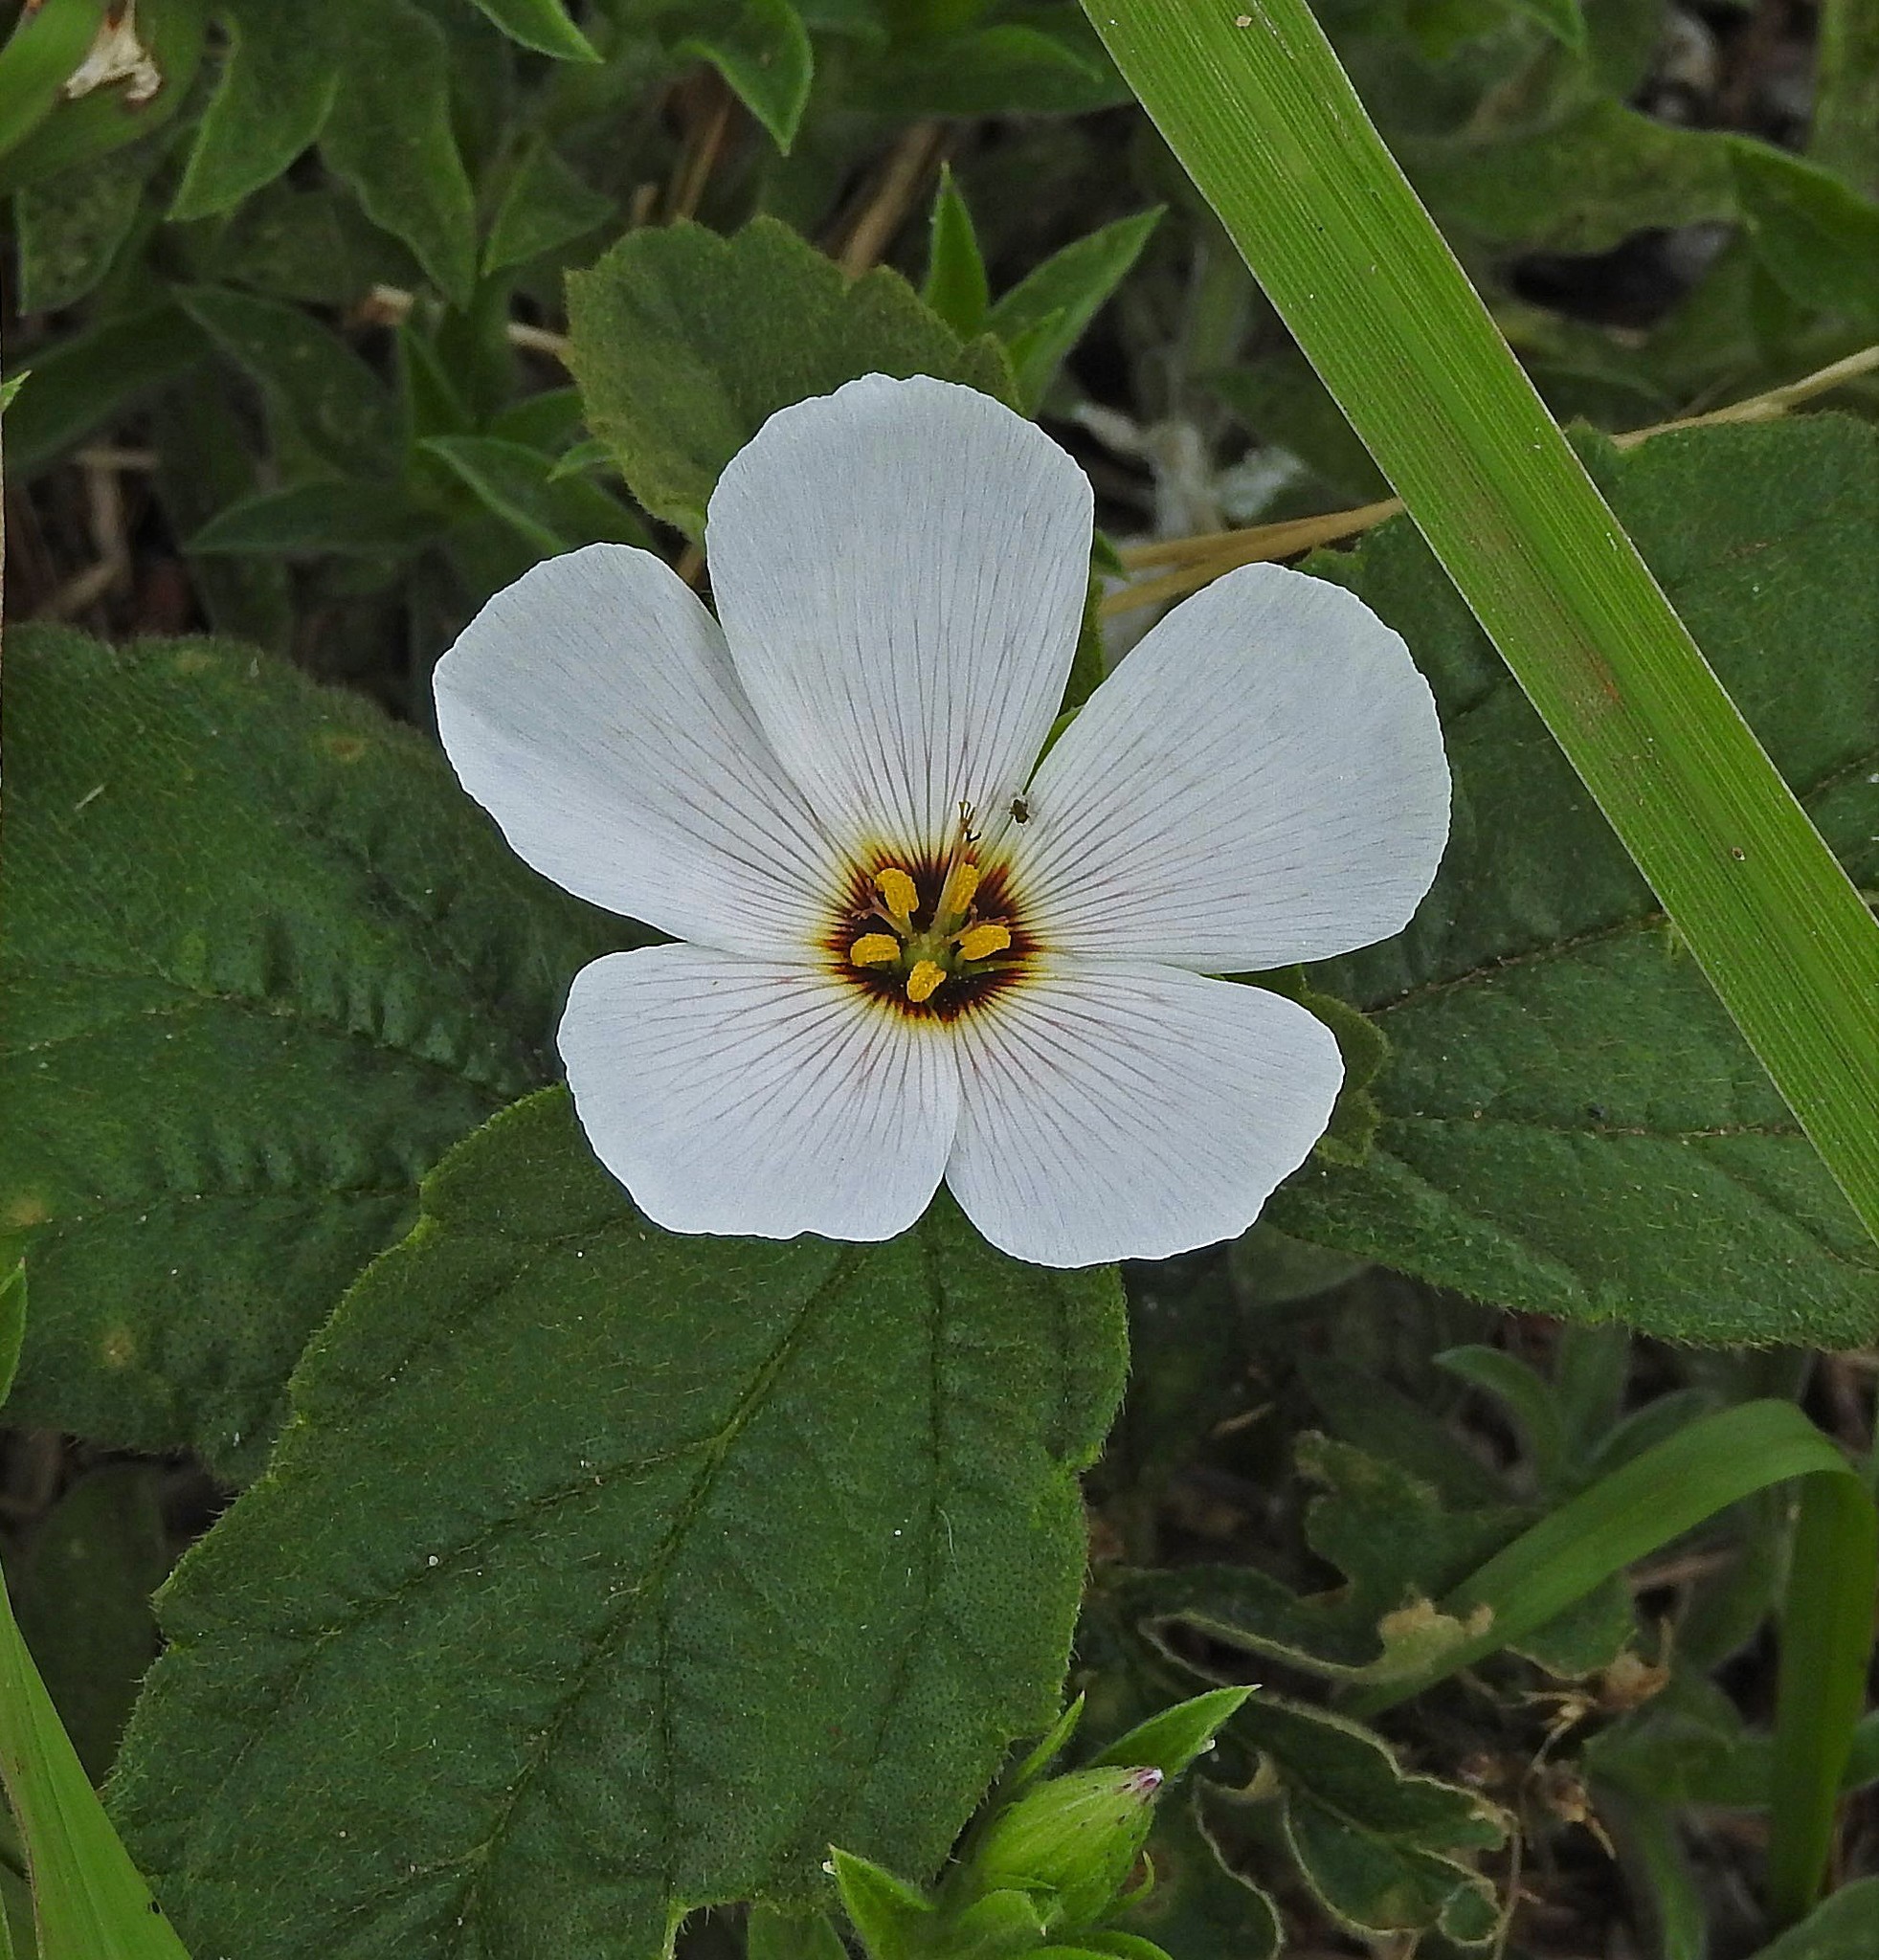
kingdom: Plantae
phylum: Tracheophyta
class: Magnoliopsida
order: Malpighiales
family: Turneraceae
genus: Turnera
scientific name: Turnera sidoides
